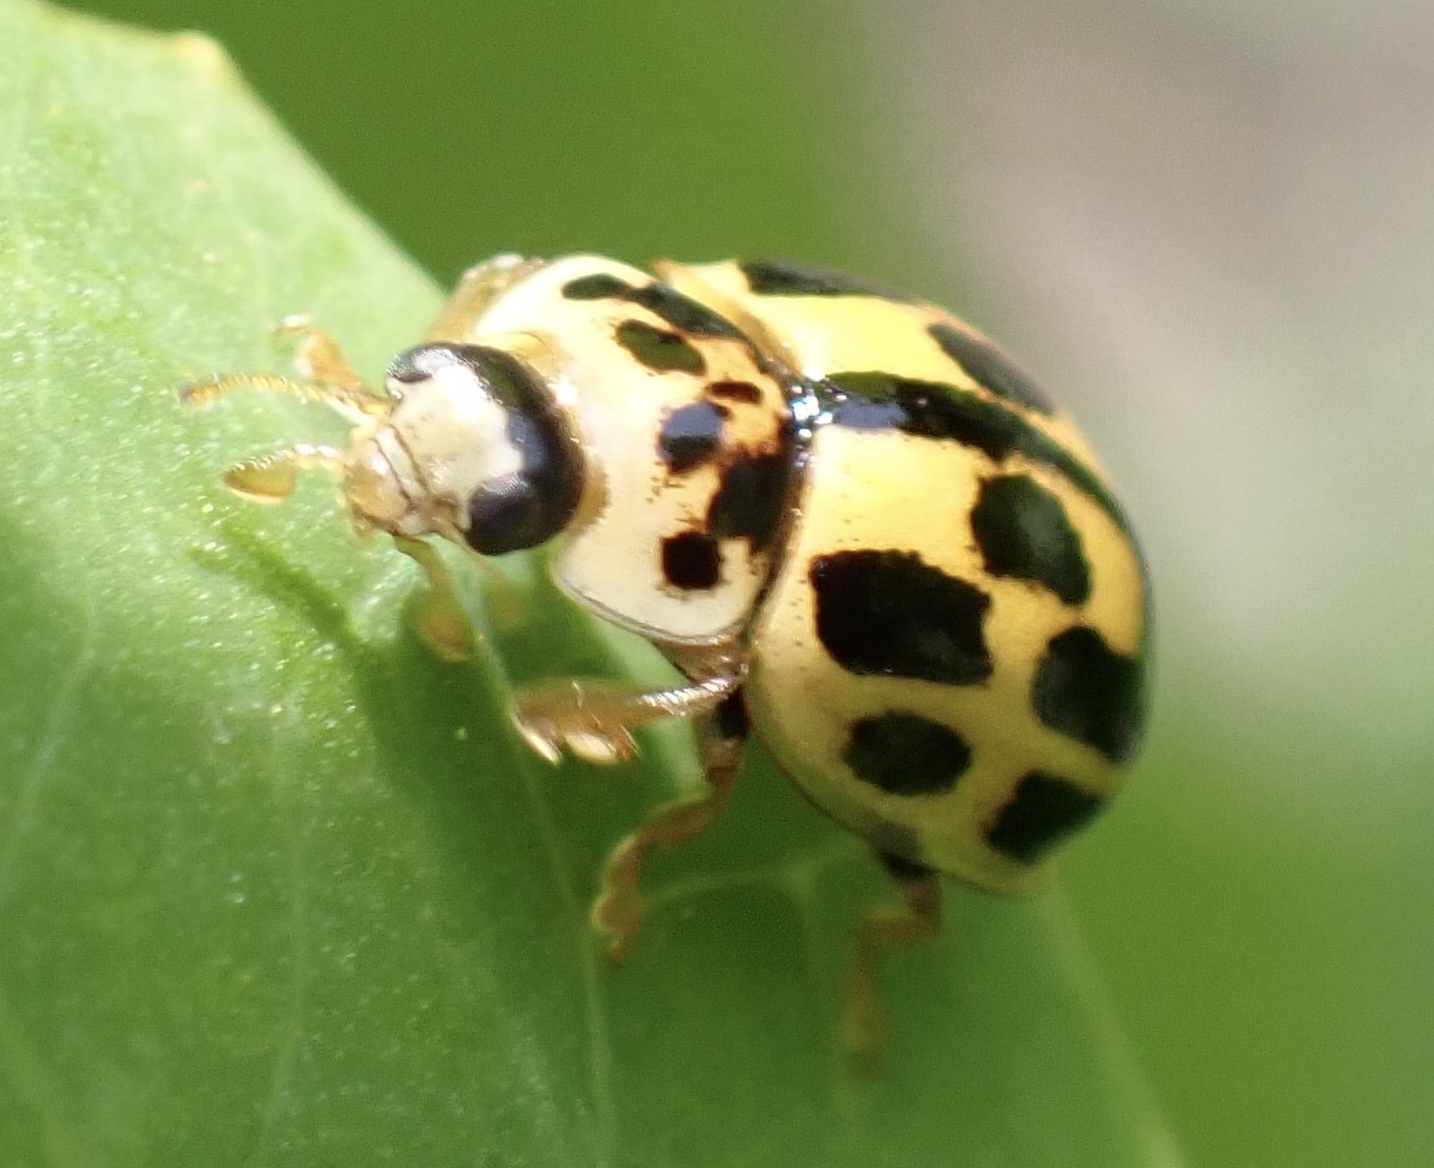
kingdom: Animalia
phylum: Arthropoda
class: Insecta
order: Coleoptera
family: Coccinellidae
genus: Propylaea
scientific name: Propylaea quatuordecimpunctata
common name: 14-spotted ladybird beetle
